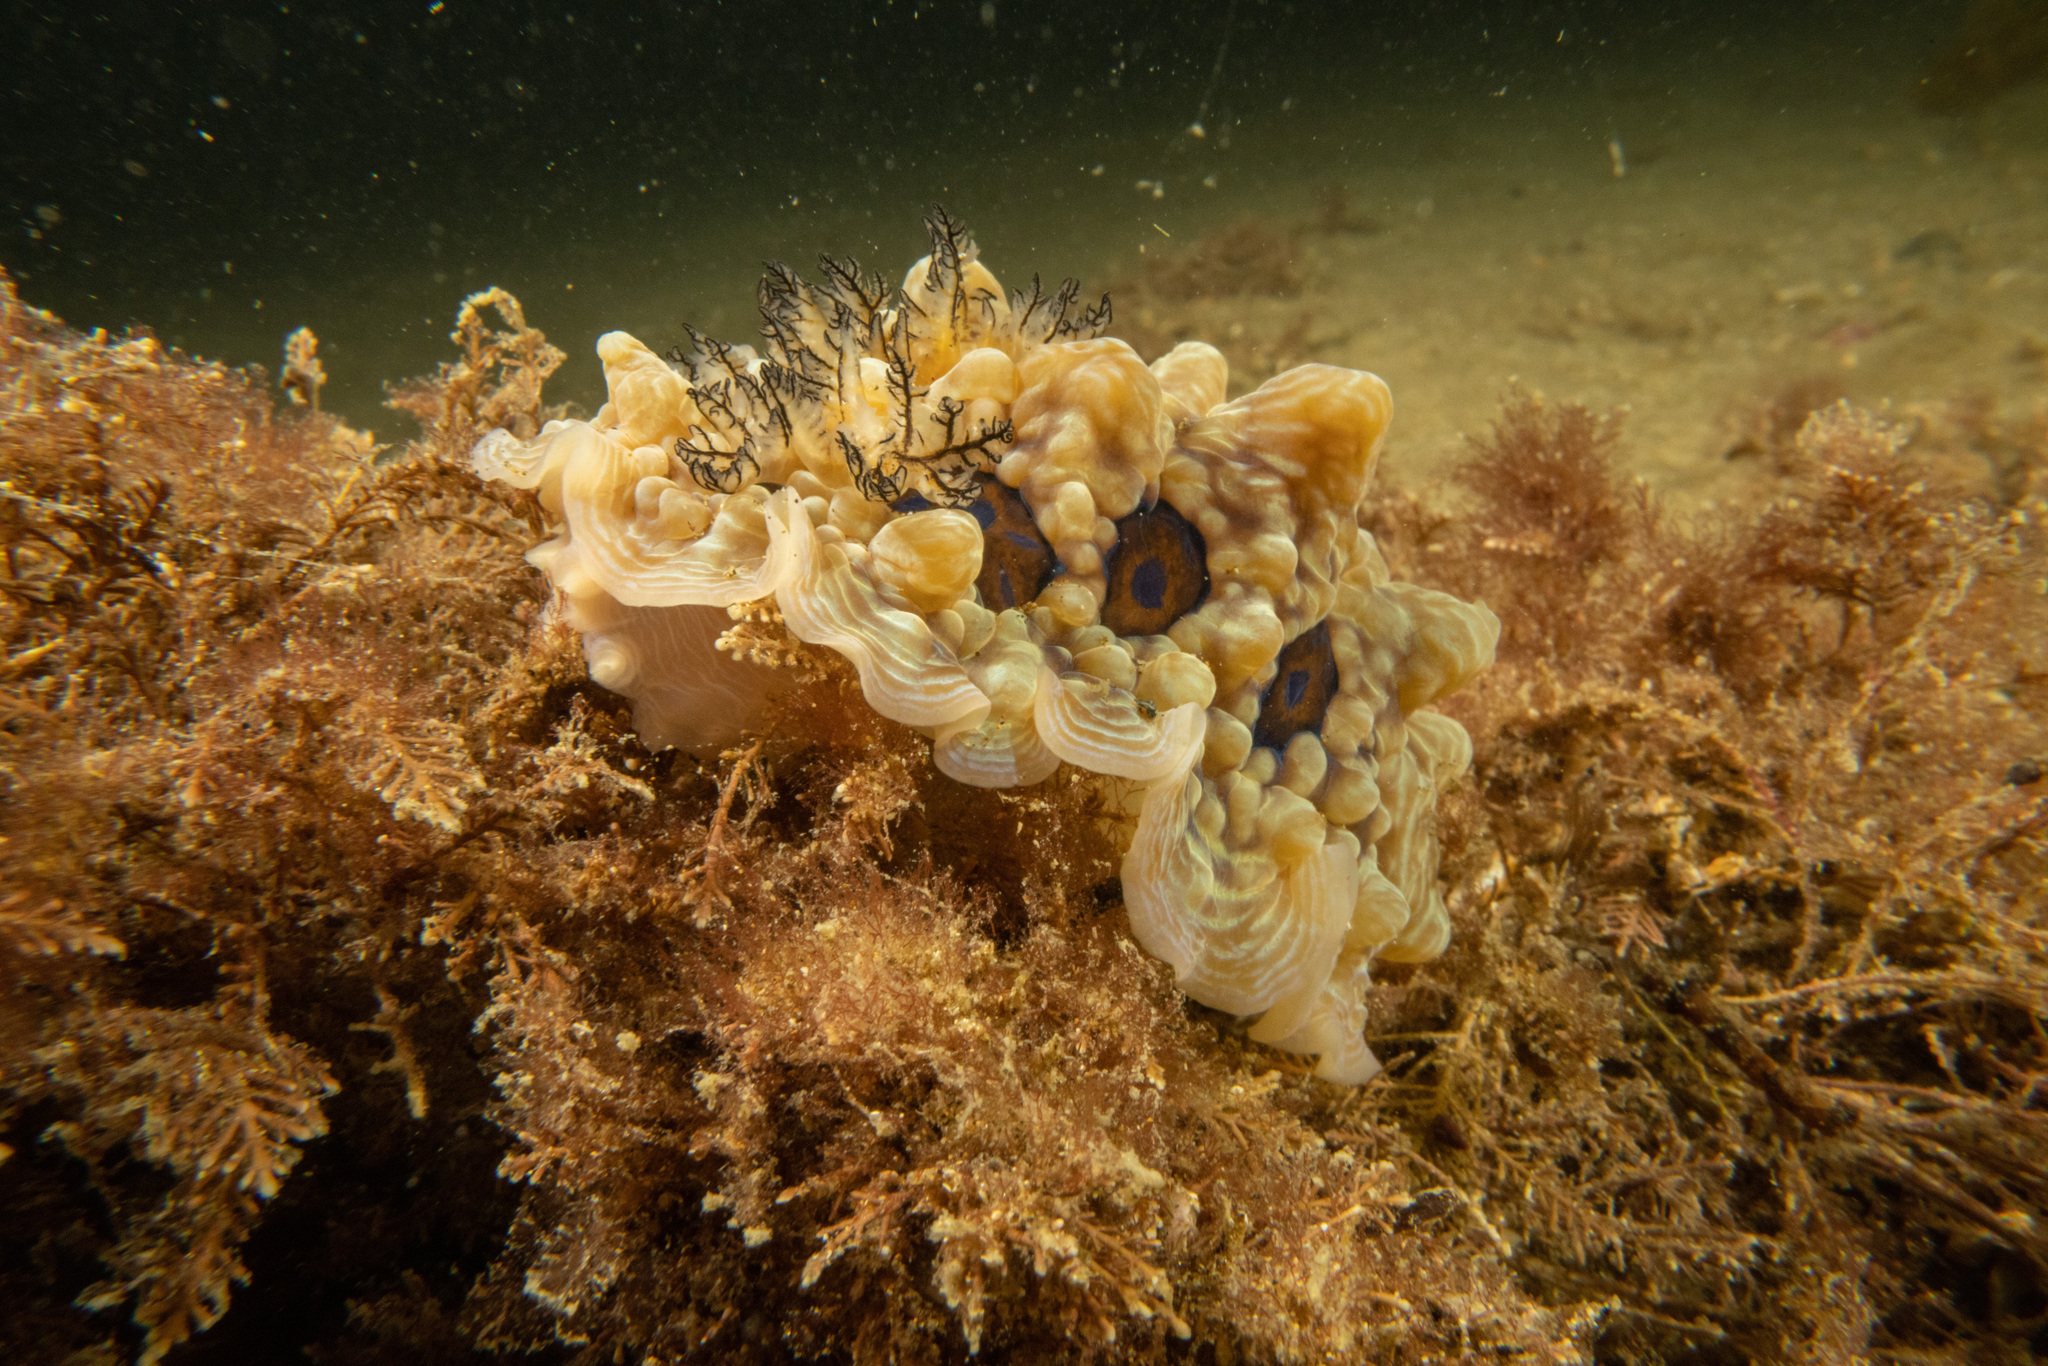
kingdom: Animalia
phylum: Mollusca
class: Gastropoda
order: Nudibranchia
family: Dendrodorididae
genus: Dendrodoris
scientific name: Dendrodoris krusensternii
